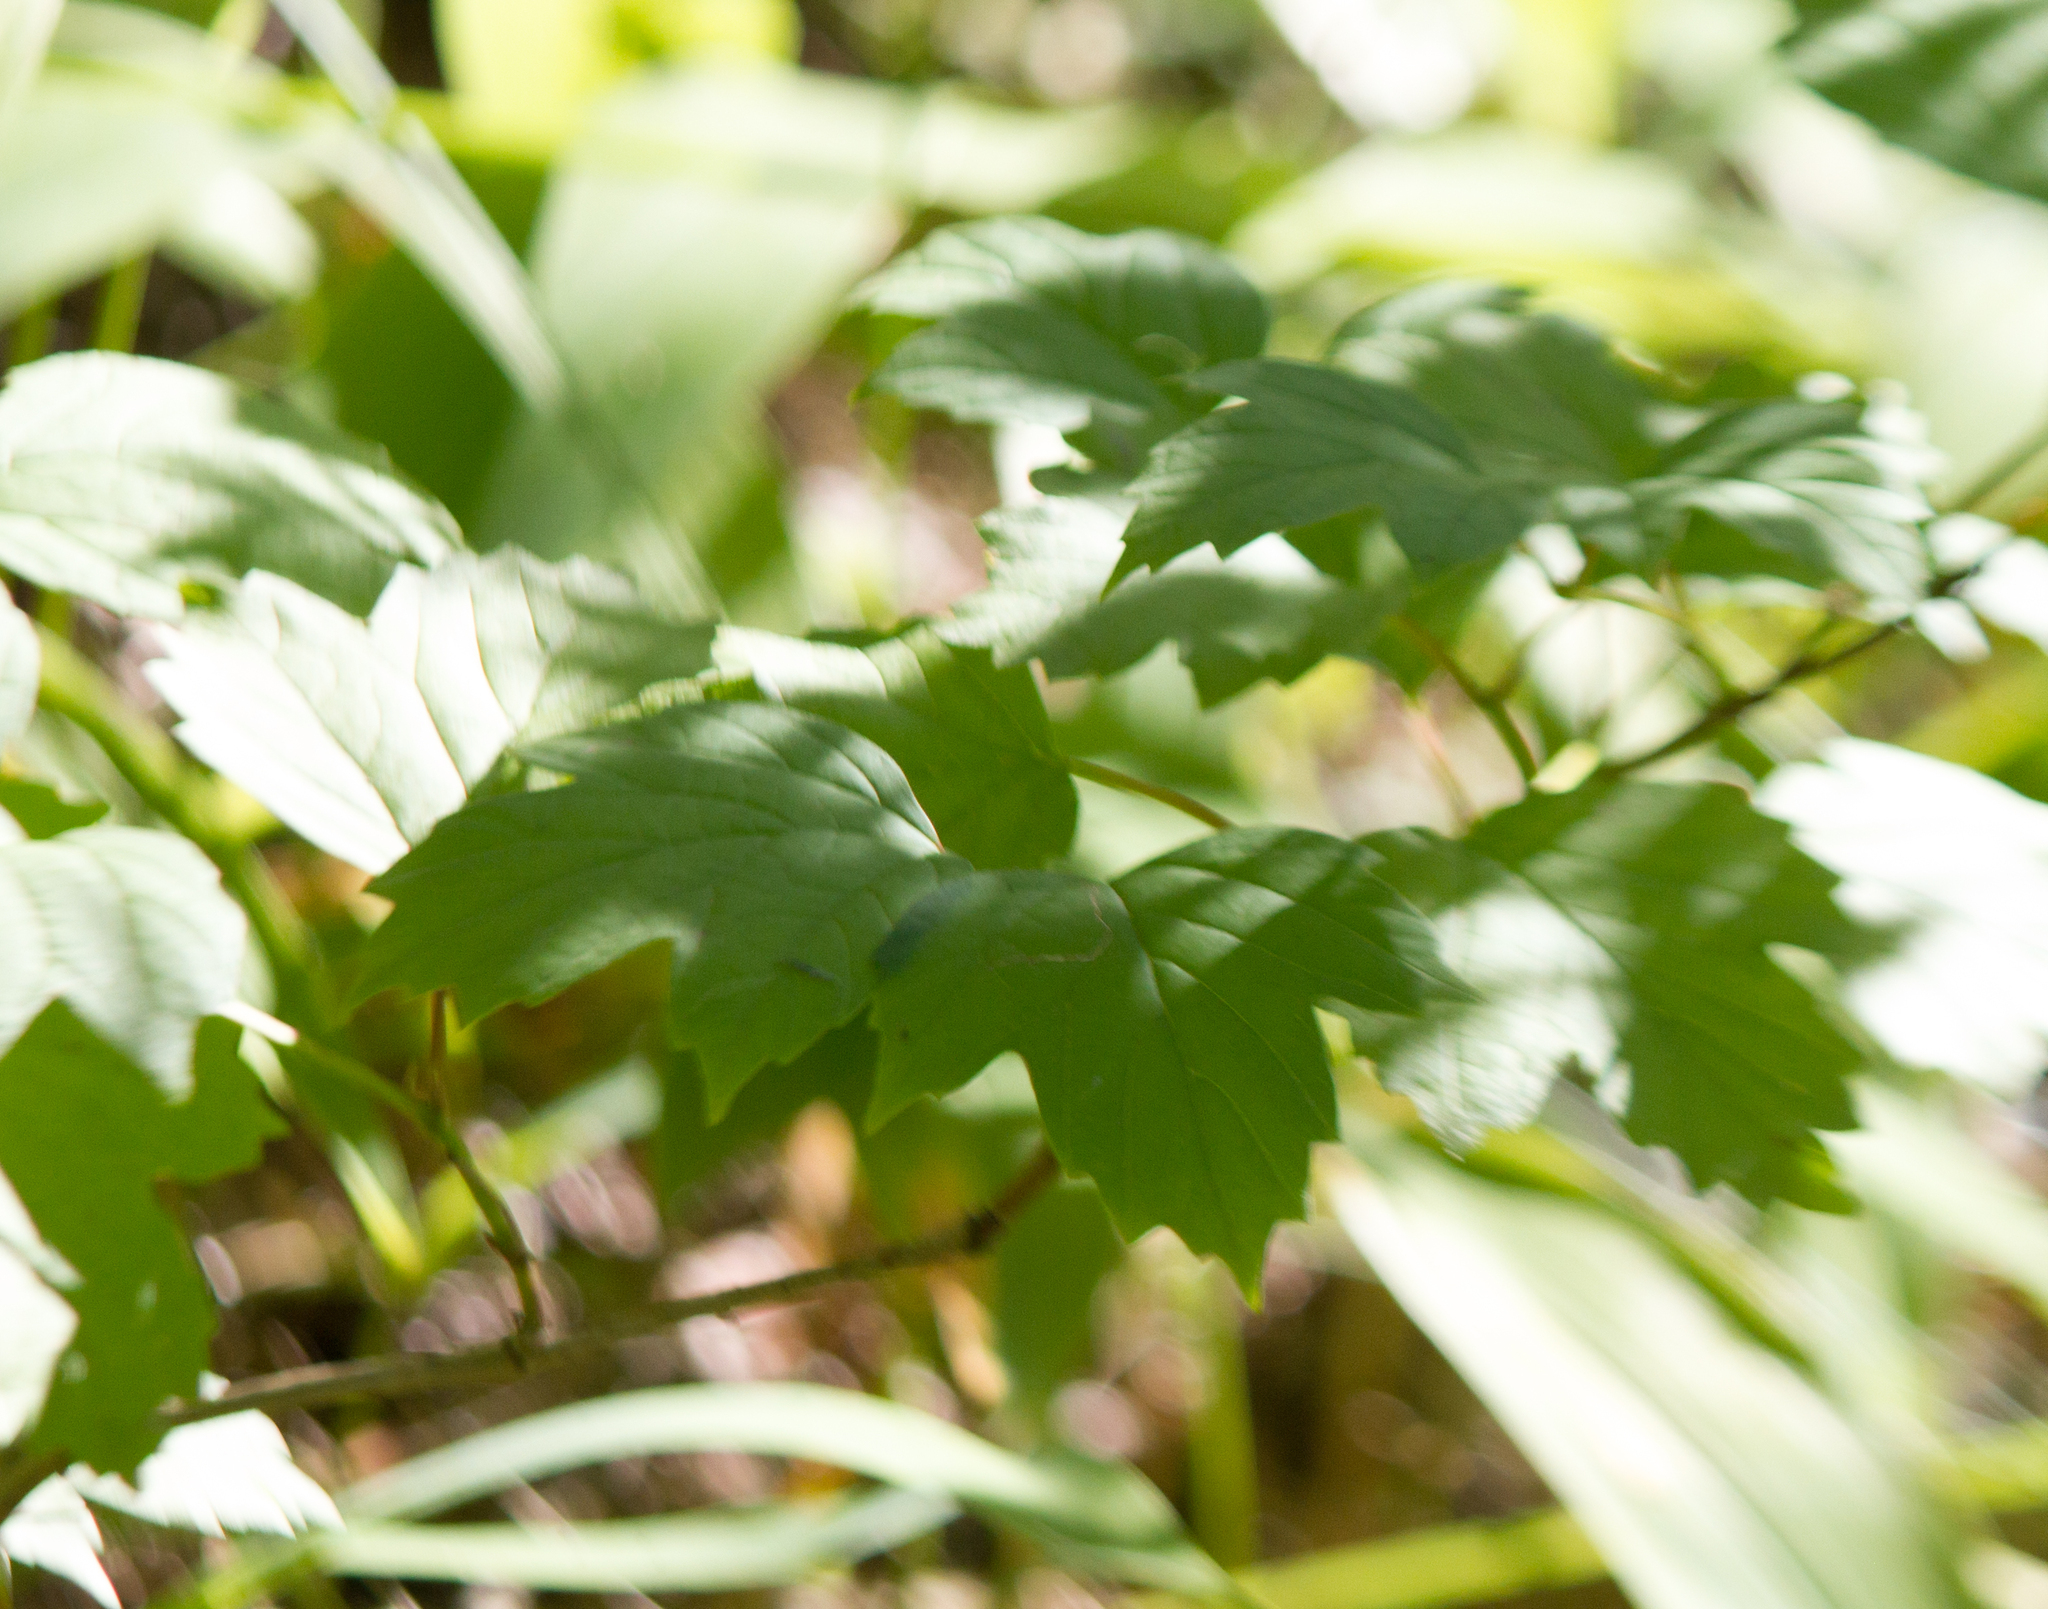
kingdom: Plantae
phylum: Tracheophyta
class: Magnoliopsida
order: Dipsacales
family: Viburnaceae
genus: Viburnum
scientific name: Viburnum opulus
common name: Guelder-rose
